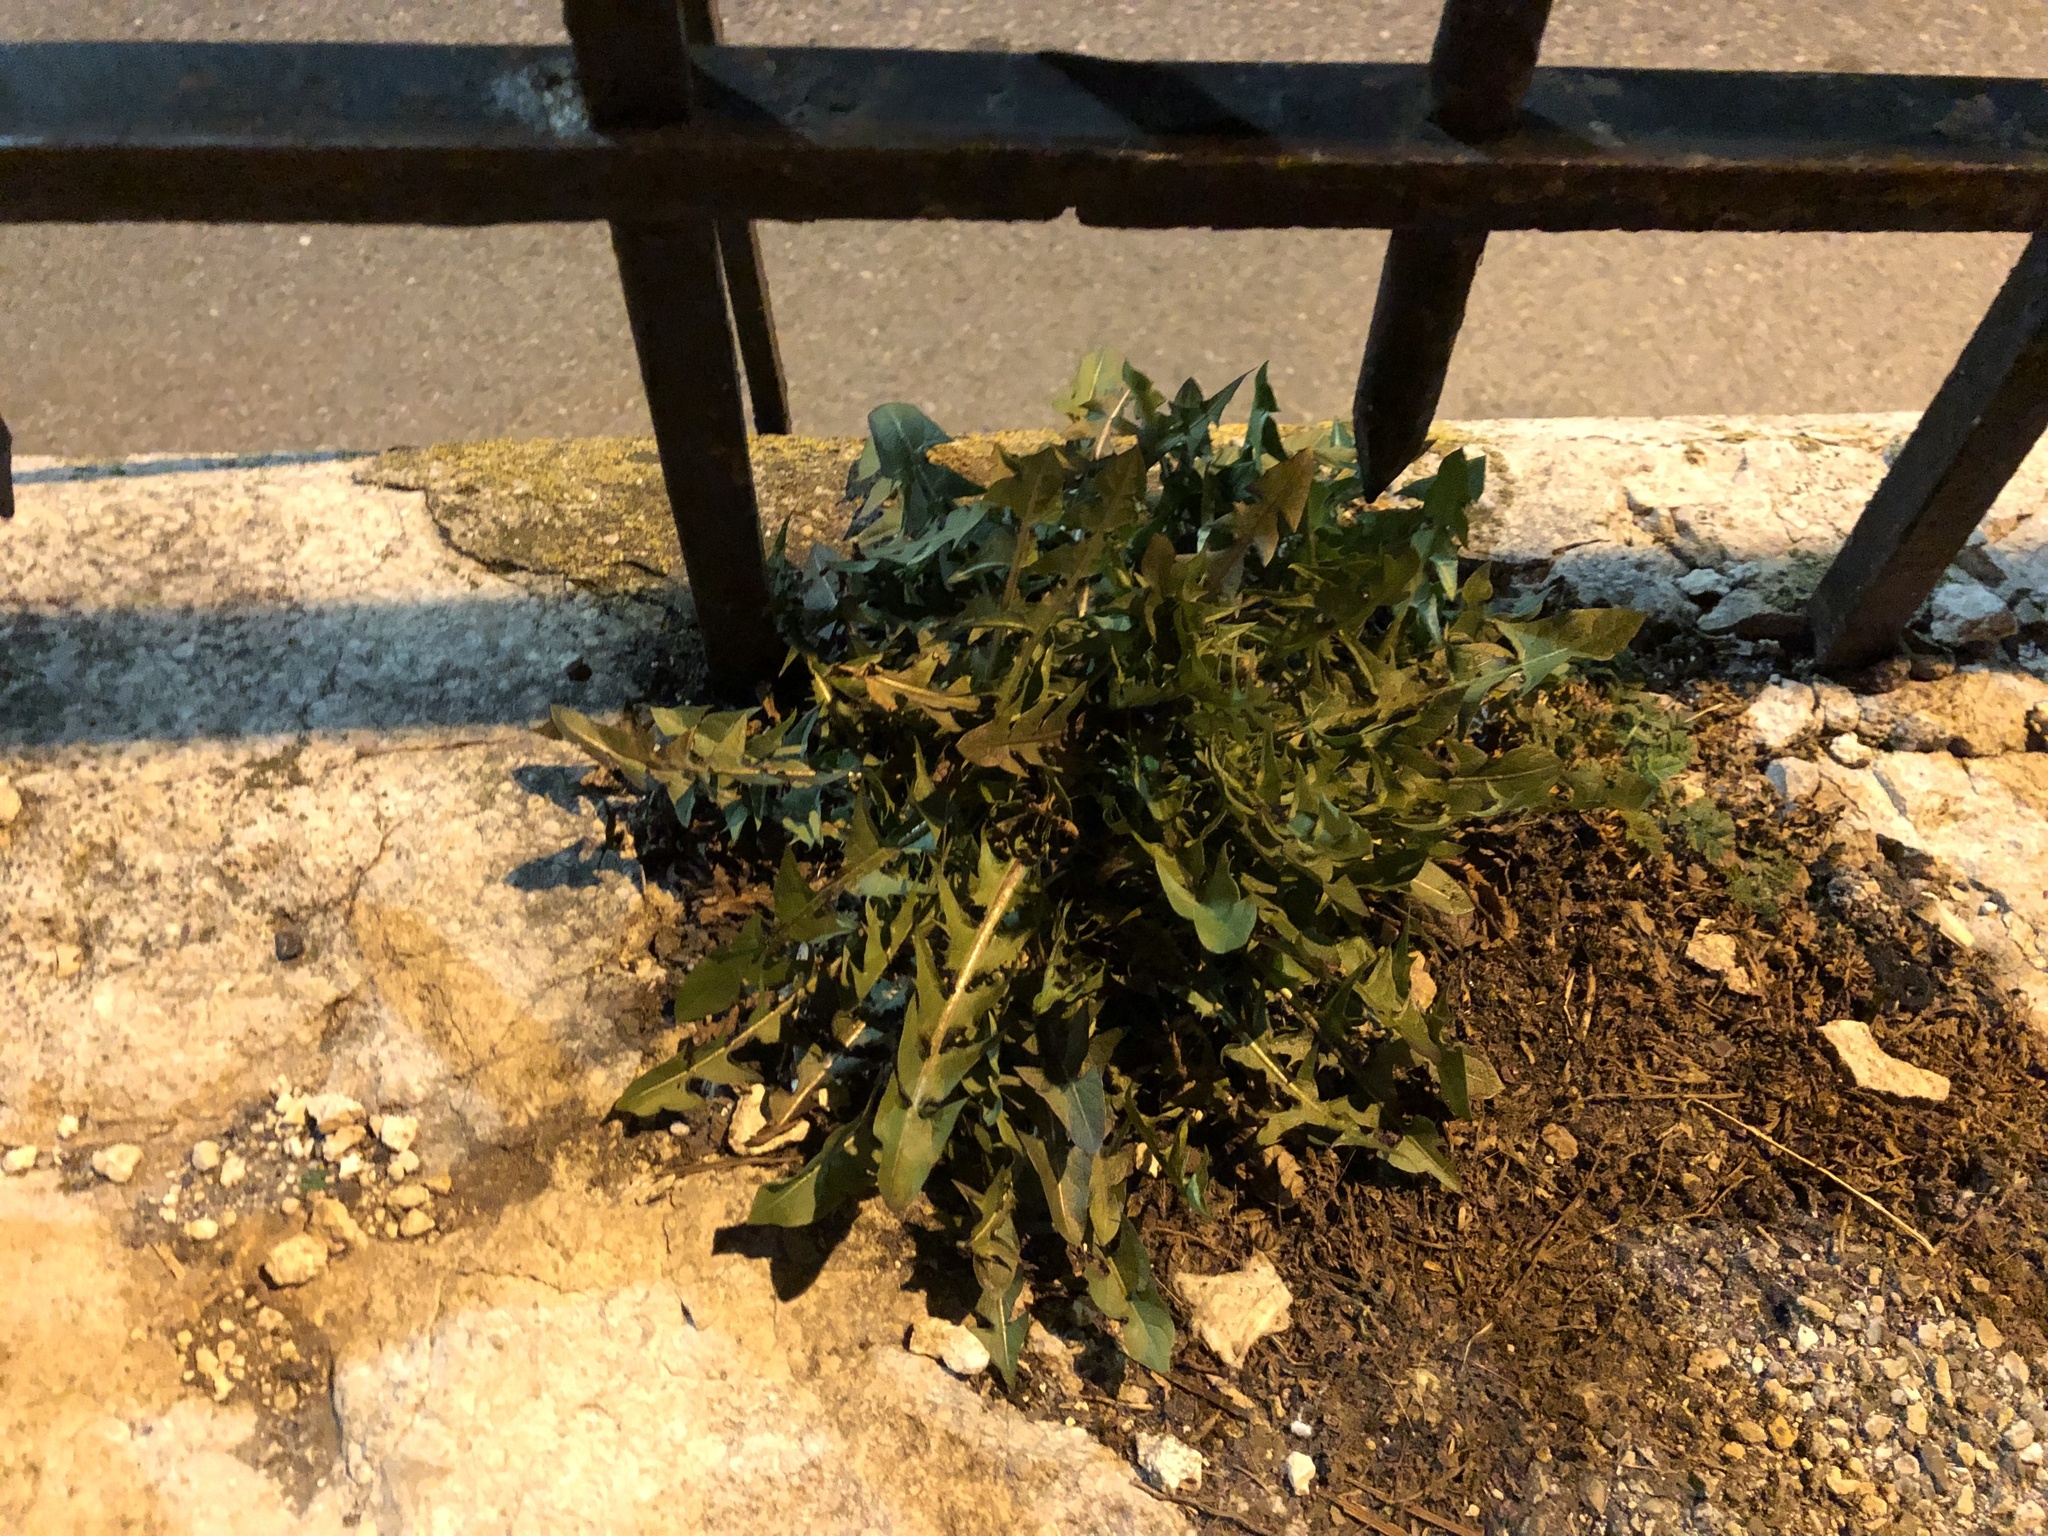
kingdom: Plantae
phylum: Tracheophyta
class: Magnoliopsida
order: Asterales
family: Asteraceae
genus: Taraxacum
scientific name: Taraxacum officinale
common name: Common dandelion
